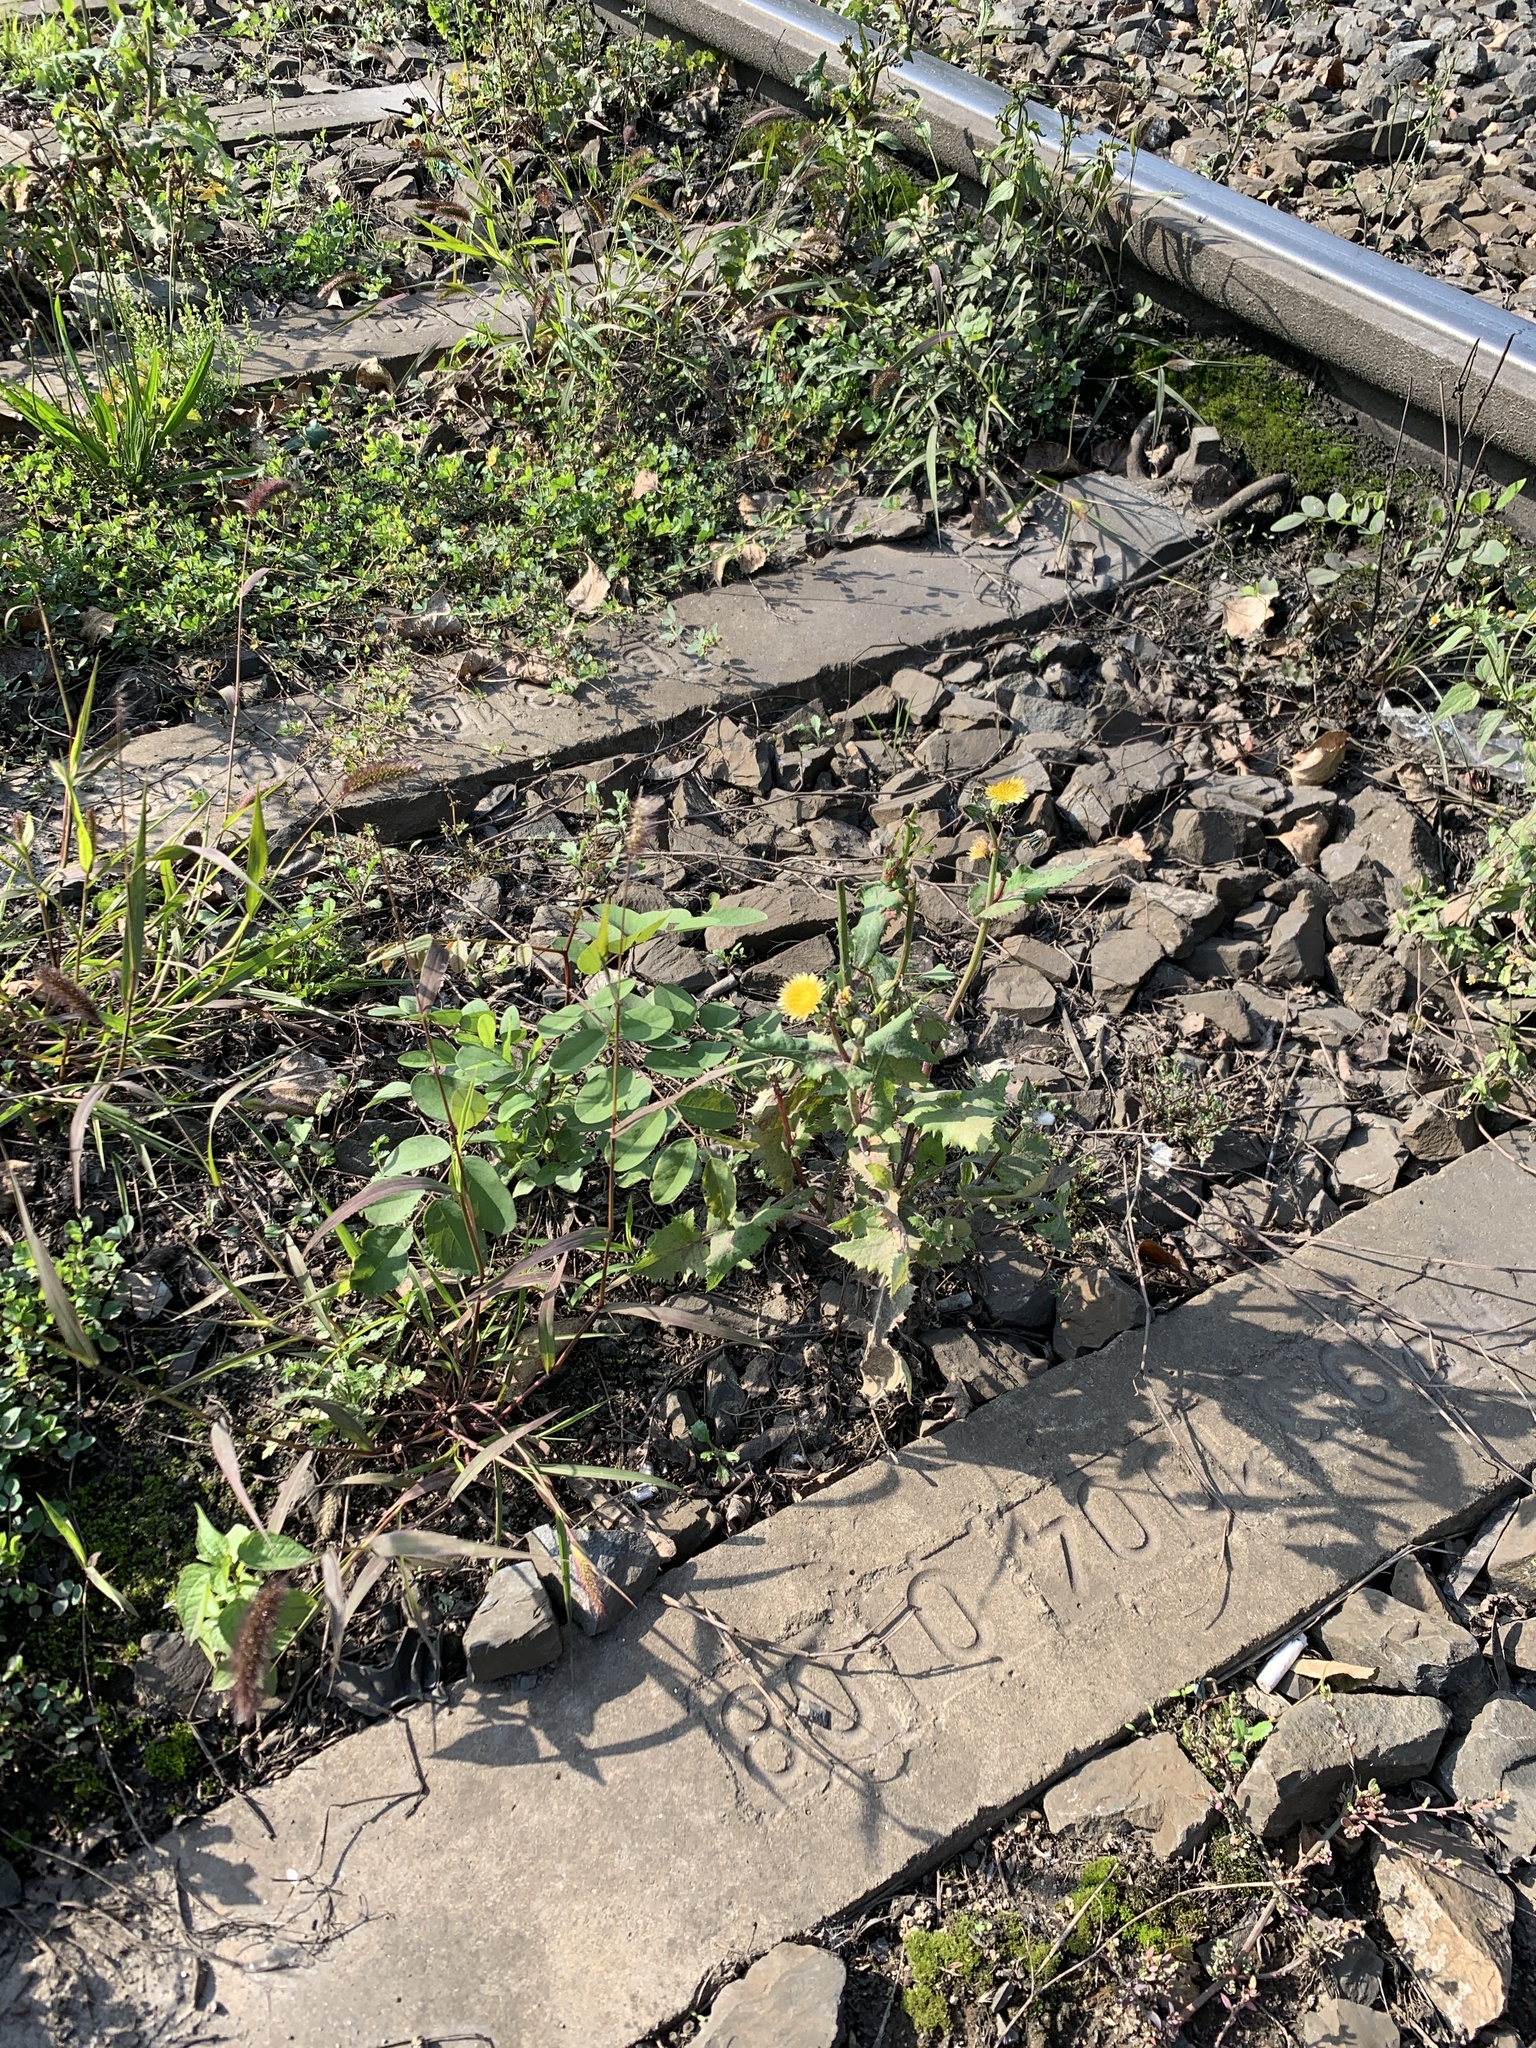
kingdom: Plantae
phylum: Tracheophyta
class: Magnoliopsida
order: Asterales
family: Asteraceae
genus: Sonchus
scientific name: Sonchus oleraceus
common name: Common sowthistle
